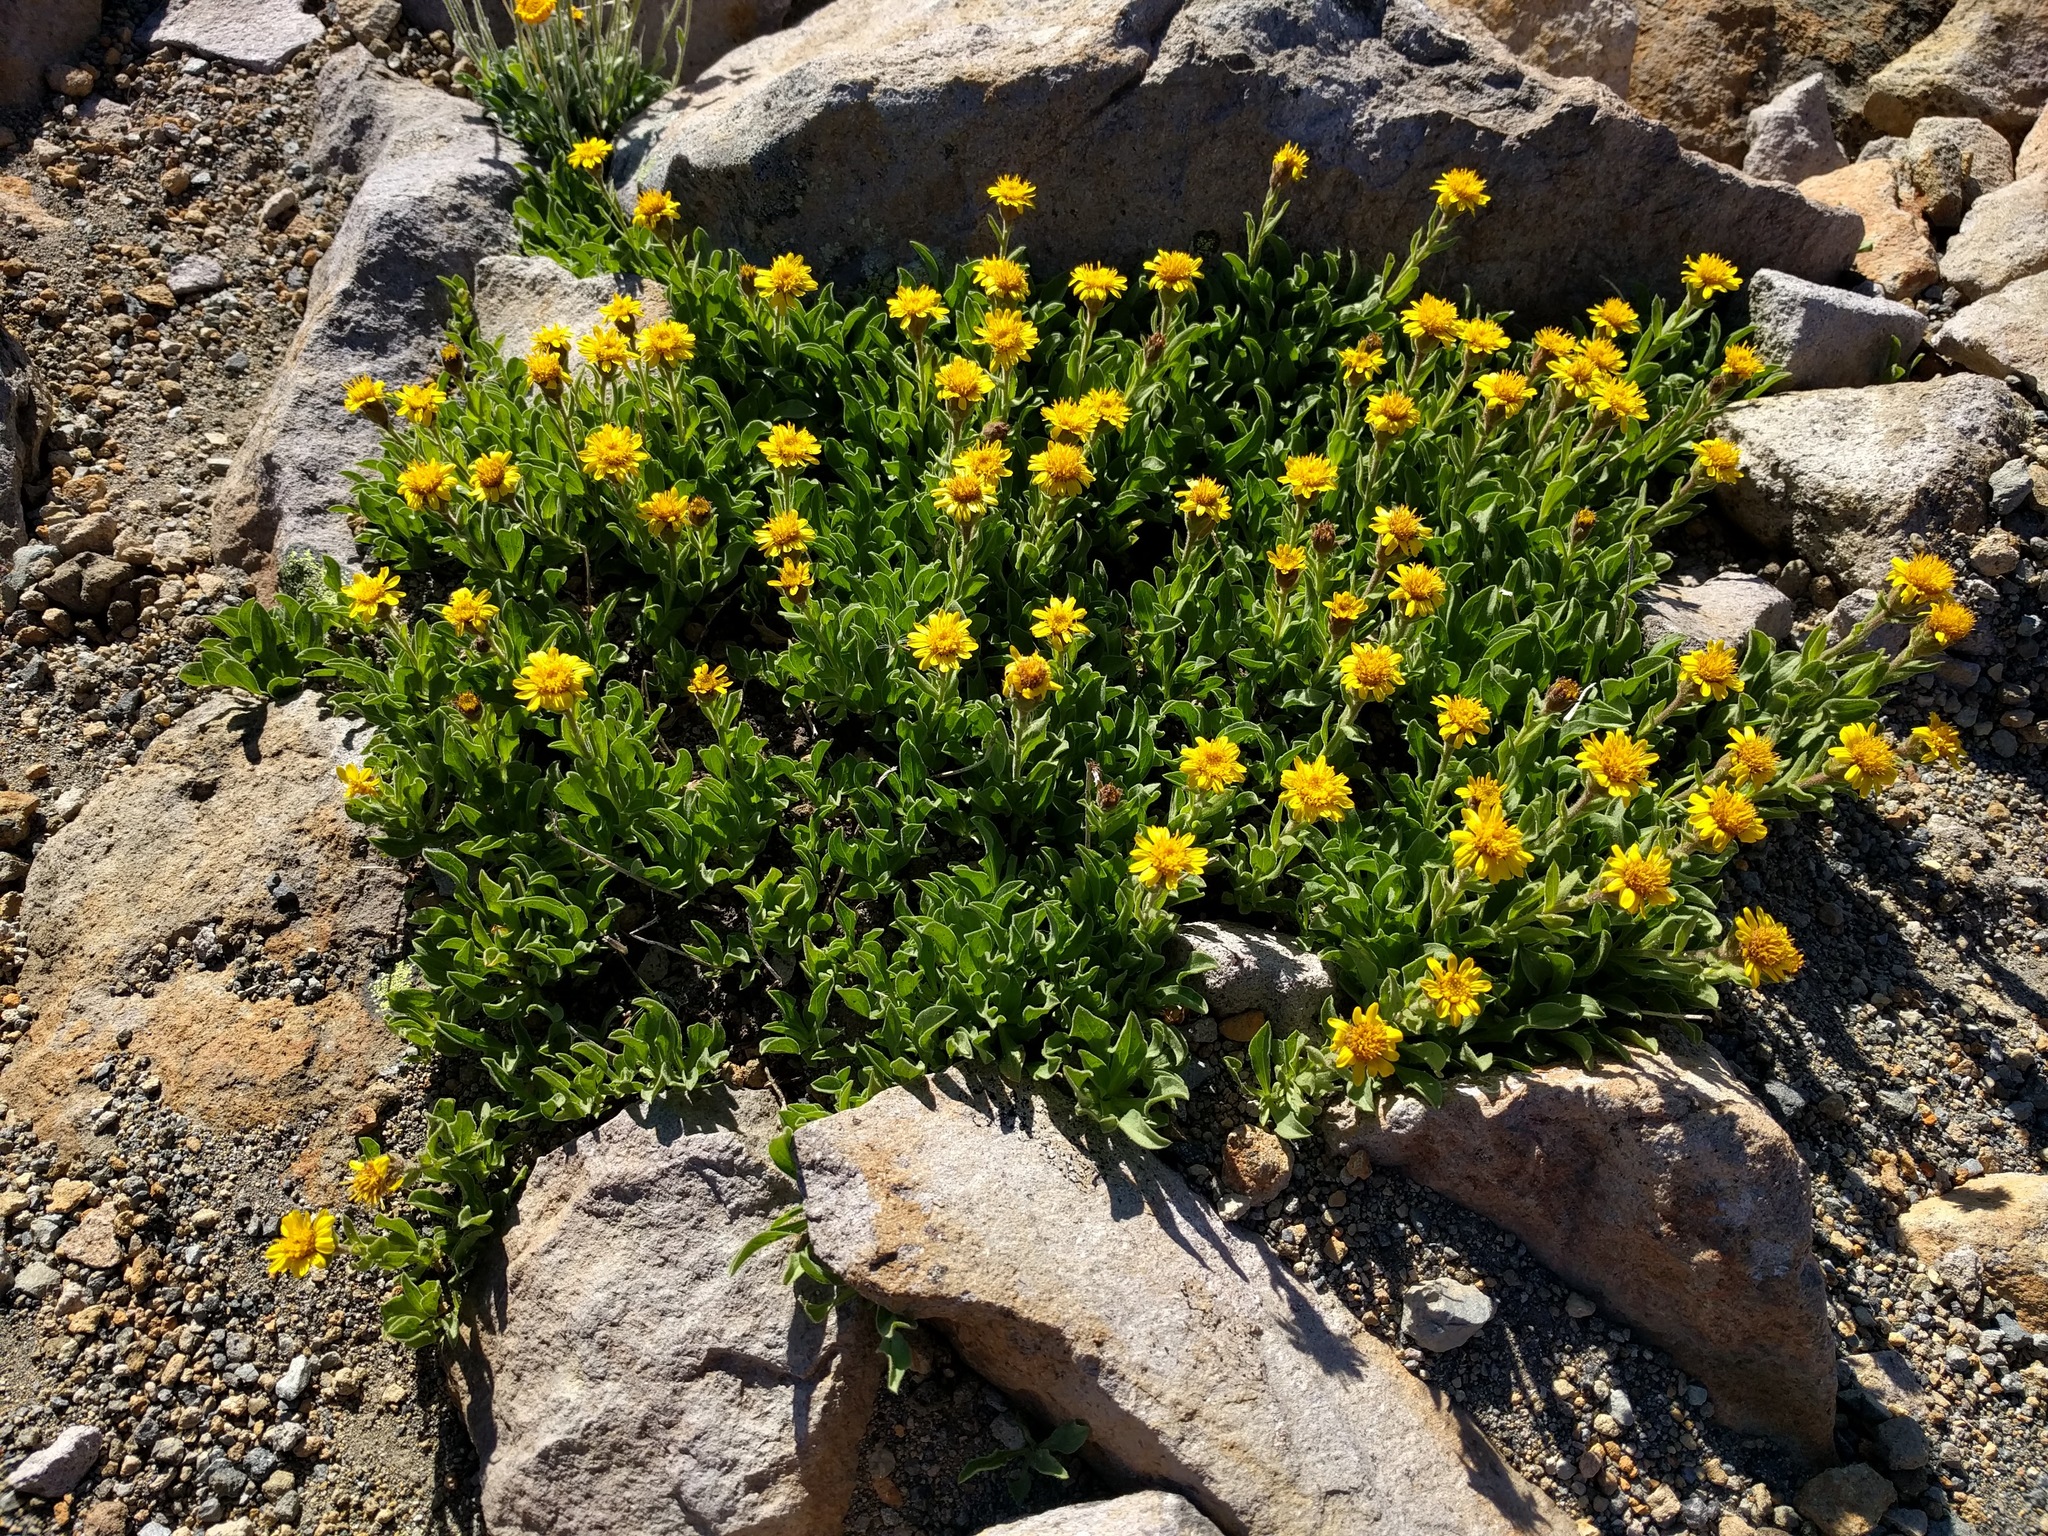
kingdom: Plantae
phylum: Tracheophyta
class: Magnoliopsida
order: Asterales
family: Asteraceae
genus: Tonestus
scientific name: Tonestus lyallii
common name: Lyall's goldenweed
